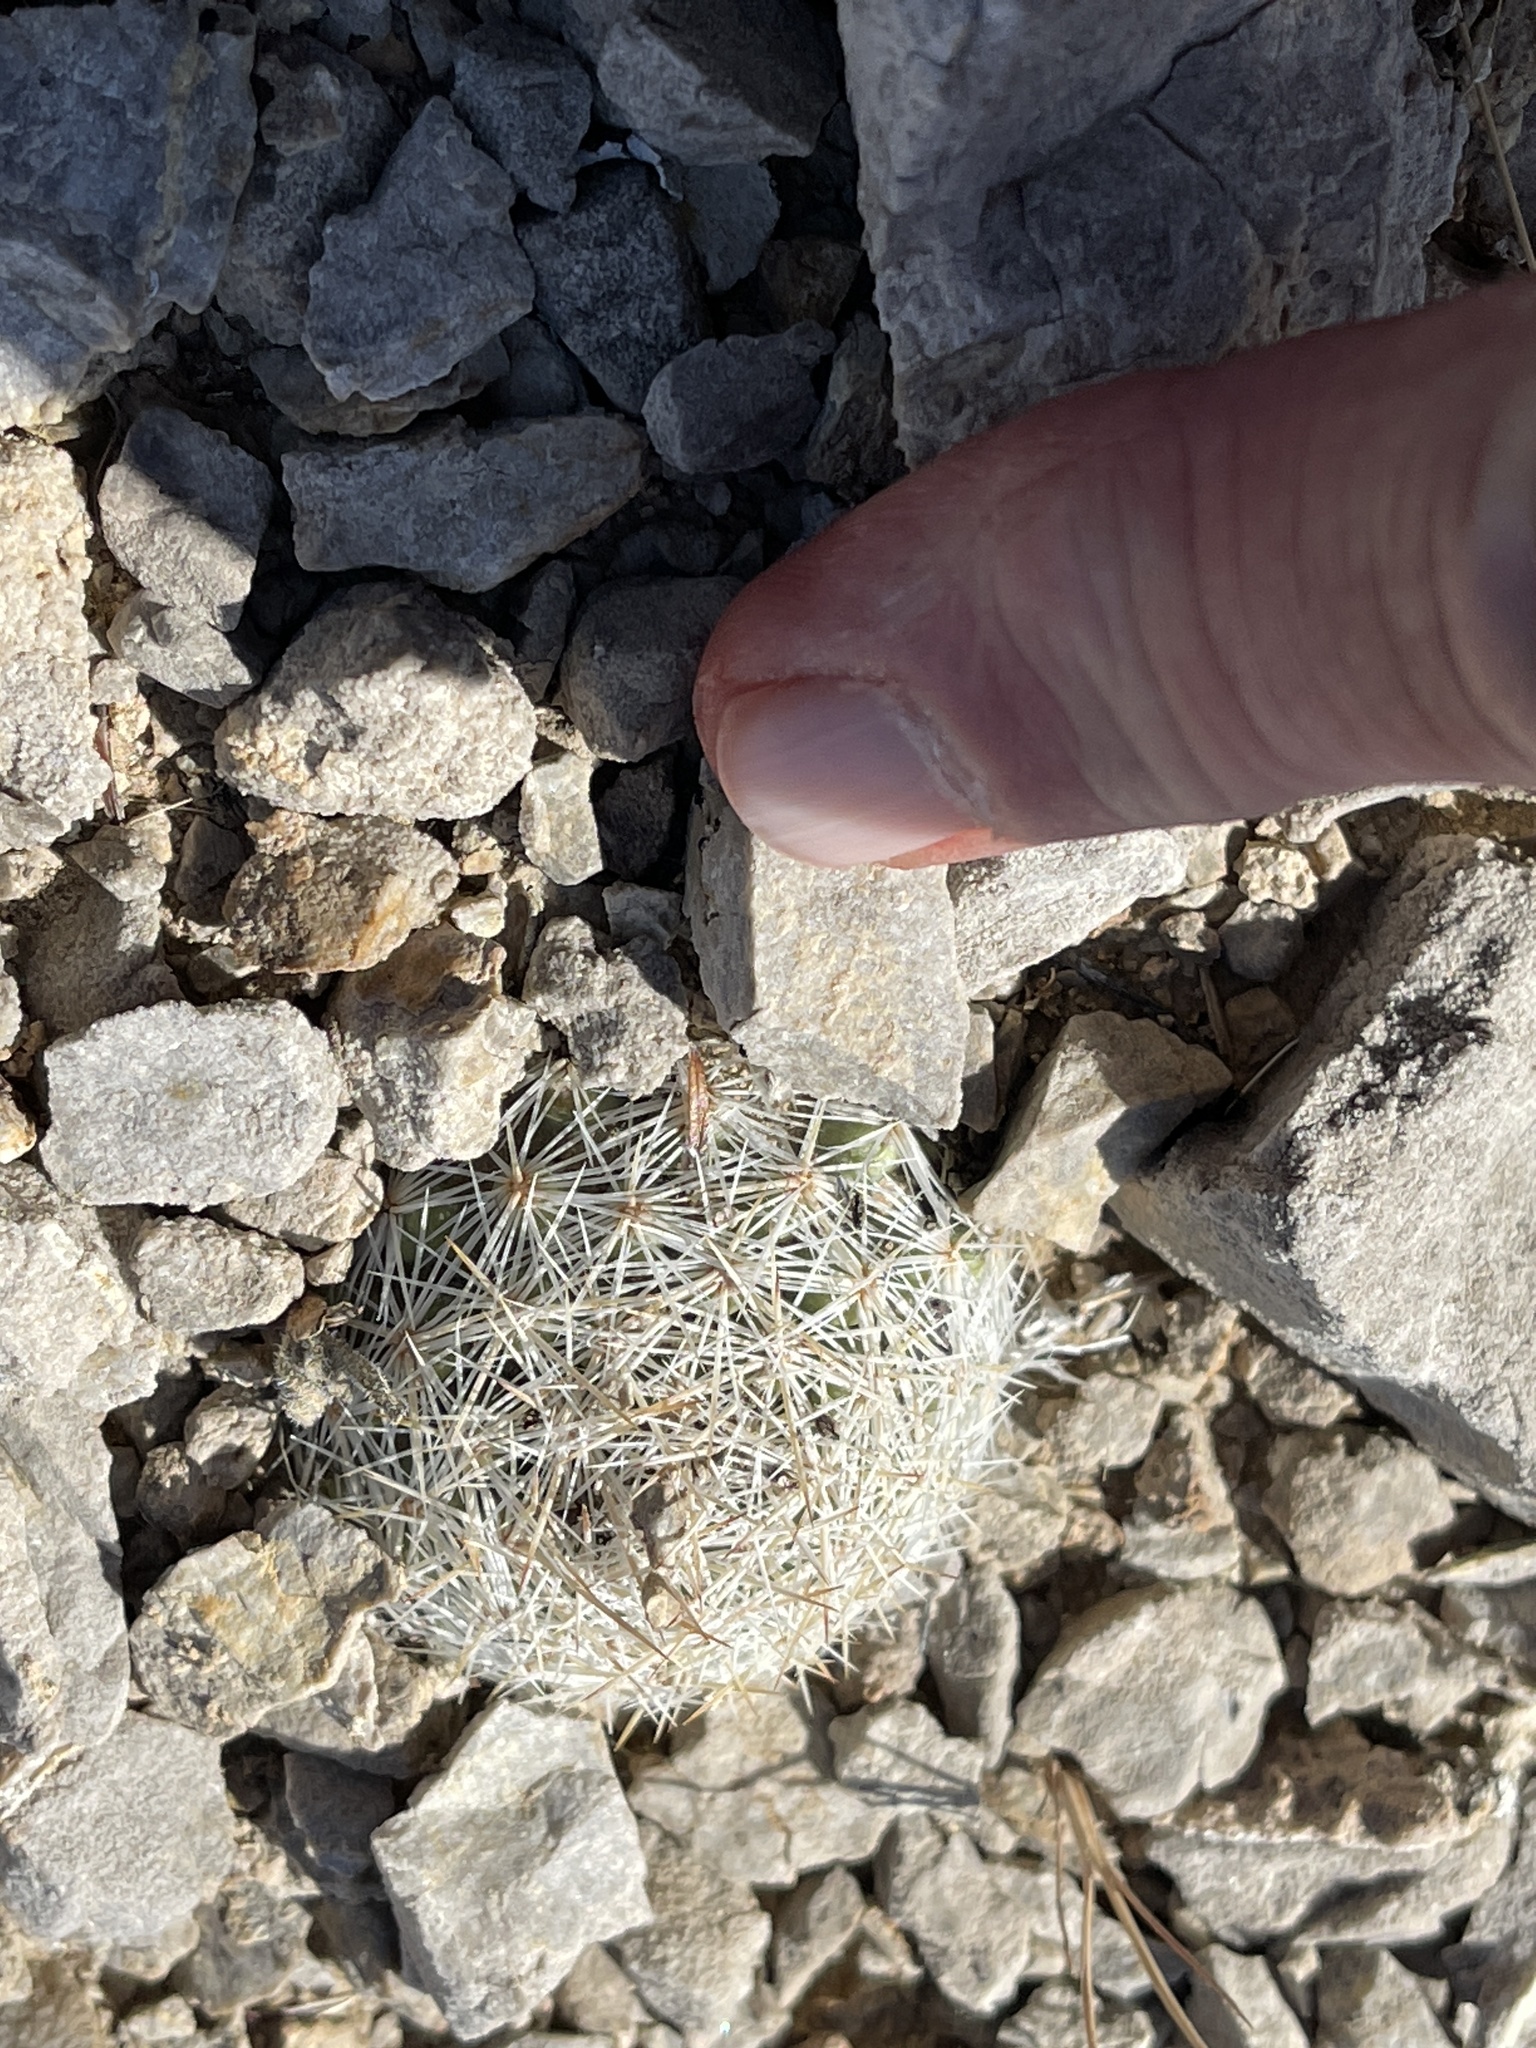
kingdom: Plantae
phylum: Tracheophyta
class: Magnoliopsida
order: Caryophyllales
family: Cactaceae
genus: Pelecyphora
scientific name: Pelecyphora vivipara
